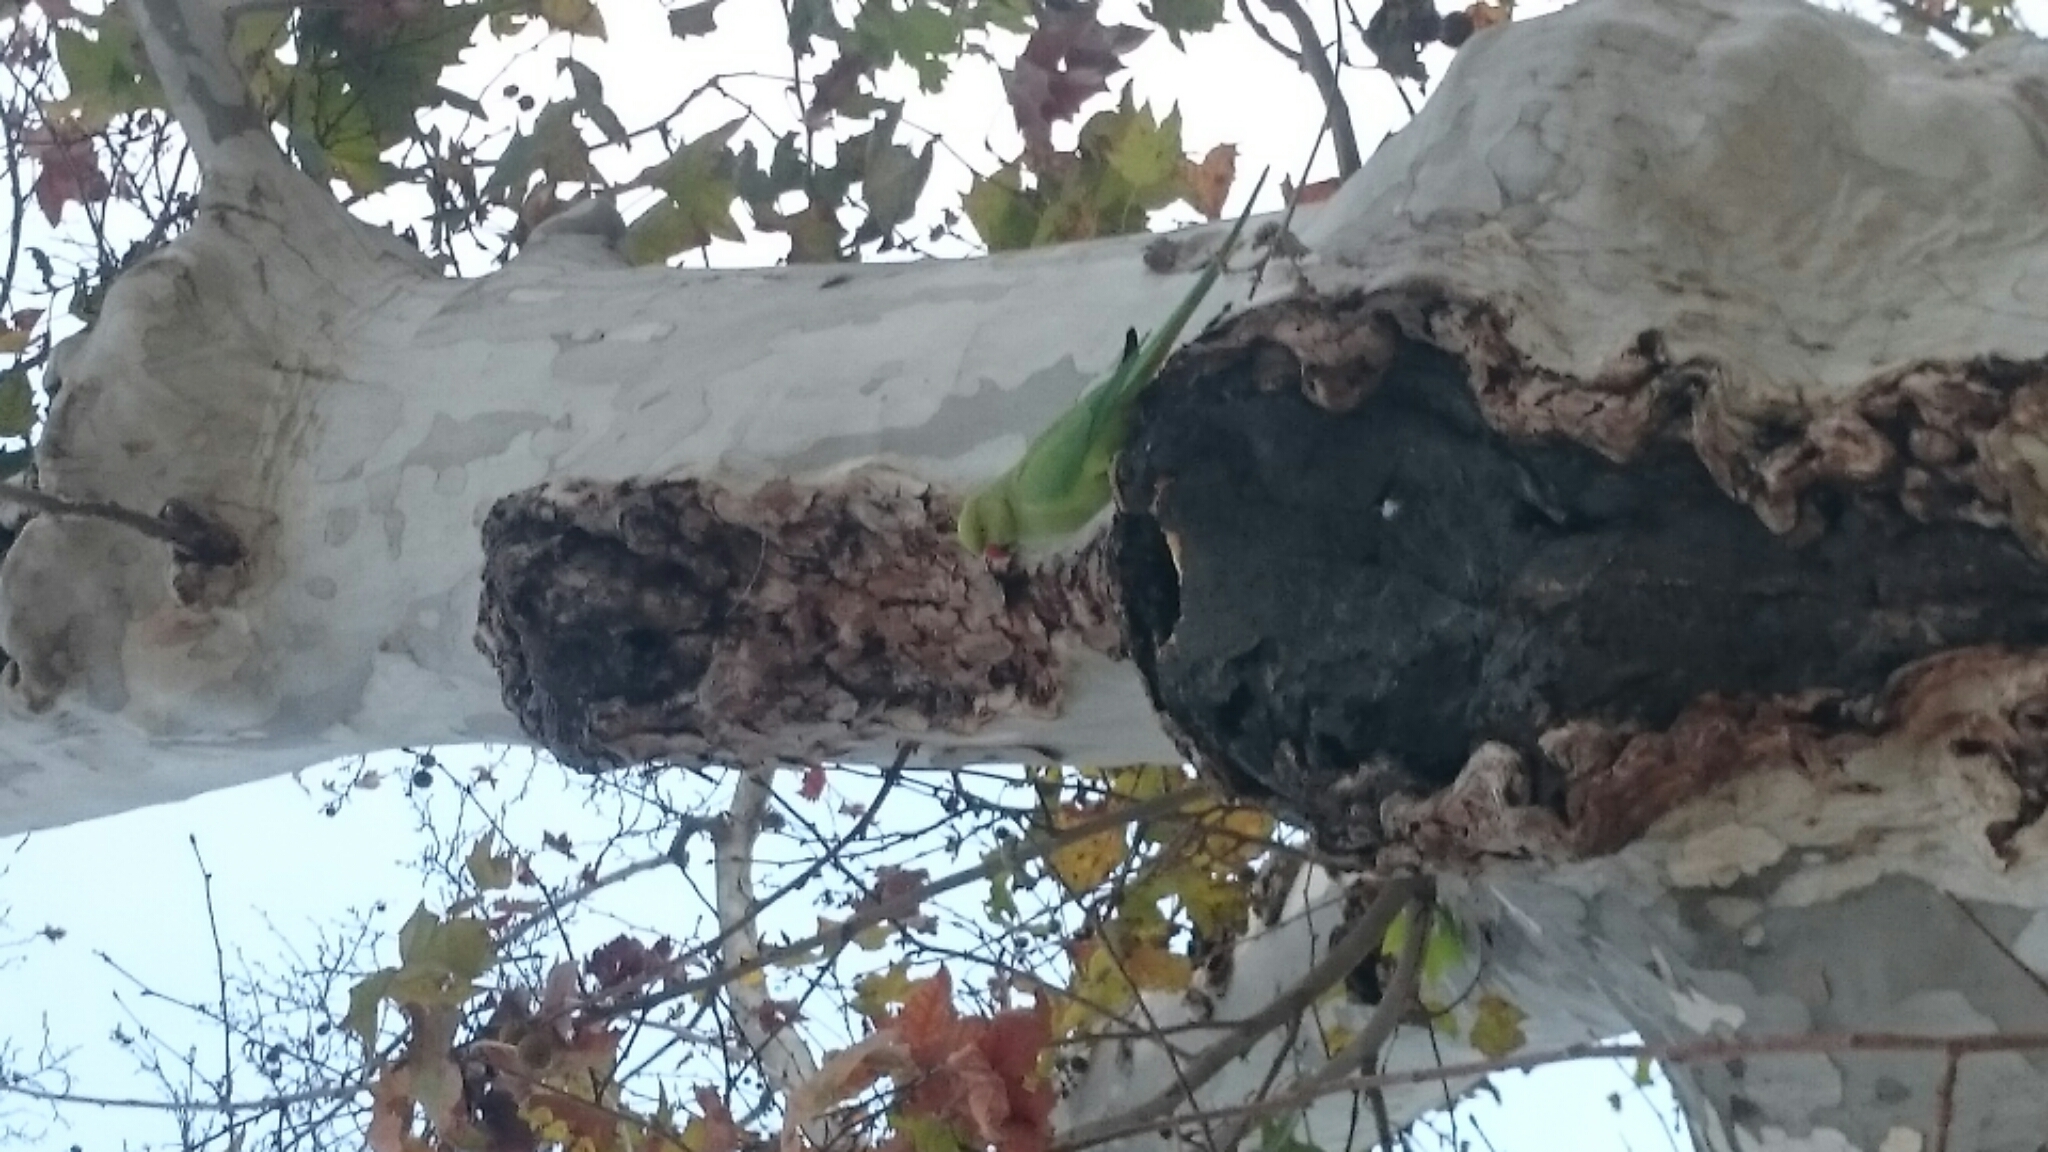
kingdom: Animalia
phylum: Chordata
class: Aves
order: Psittaciformes
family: Psittacidae
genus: Psittacula
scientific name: Psittacula krameri
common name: Rose-ringed parakeet
